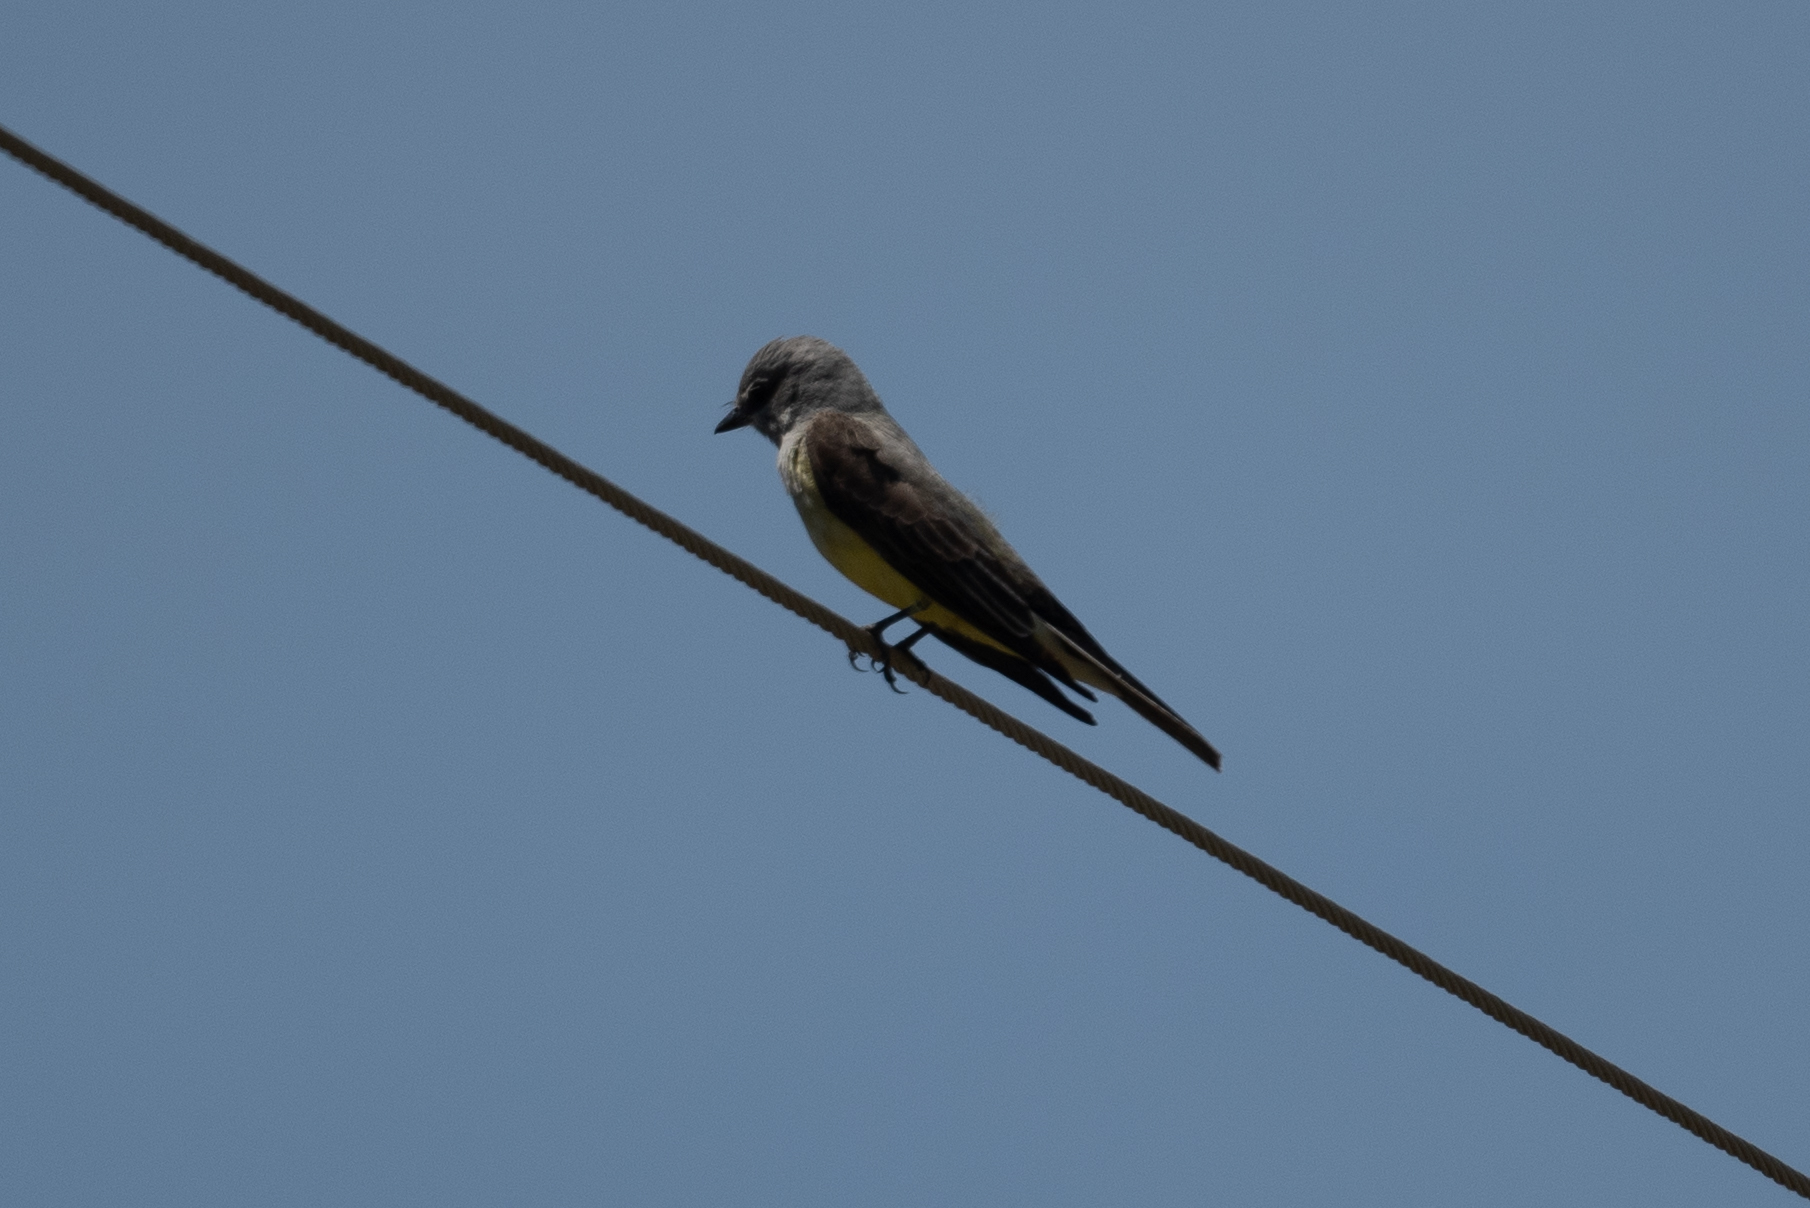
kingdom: Animalia
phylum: Chordata
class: Aves
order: Passeriformes
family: Tyrannidae
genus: Tyrannus
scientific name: Tyrannus verticalis
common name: Western kingbird
